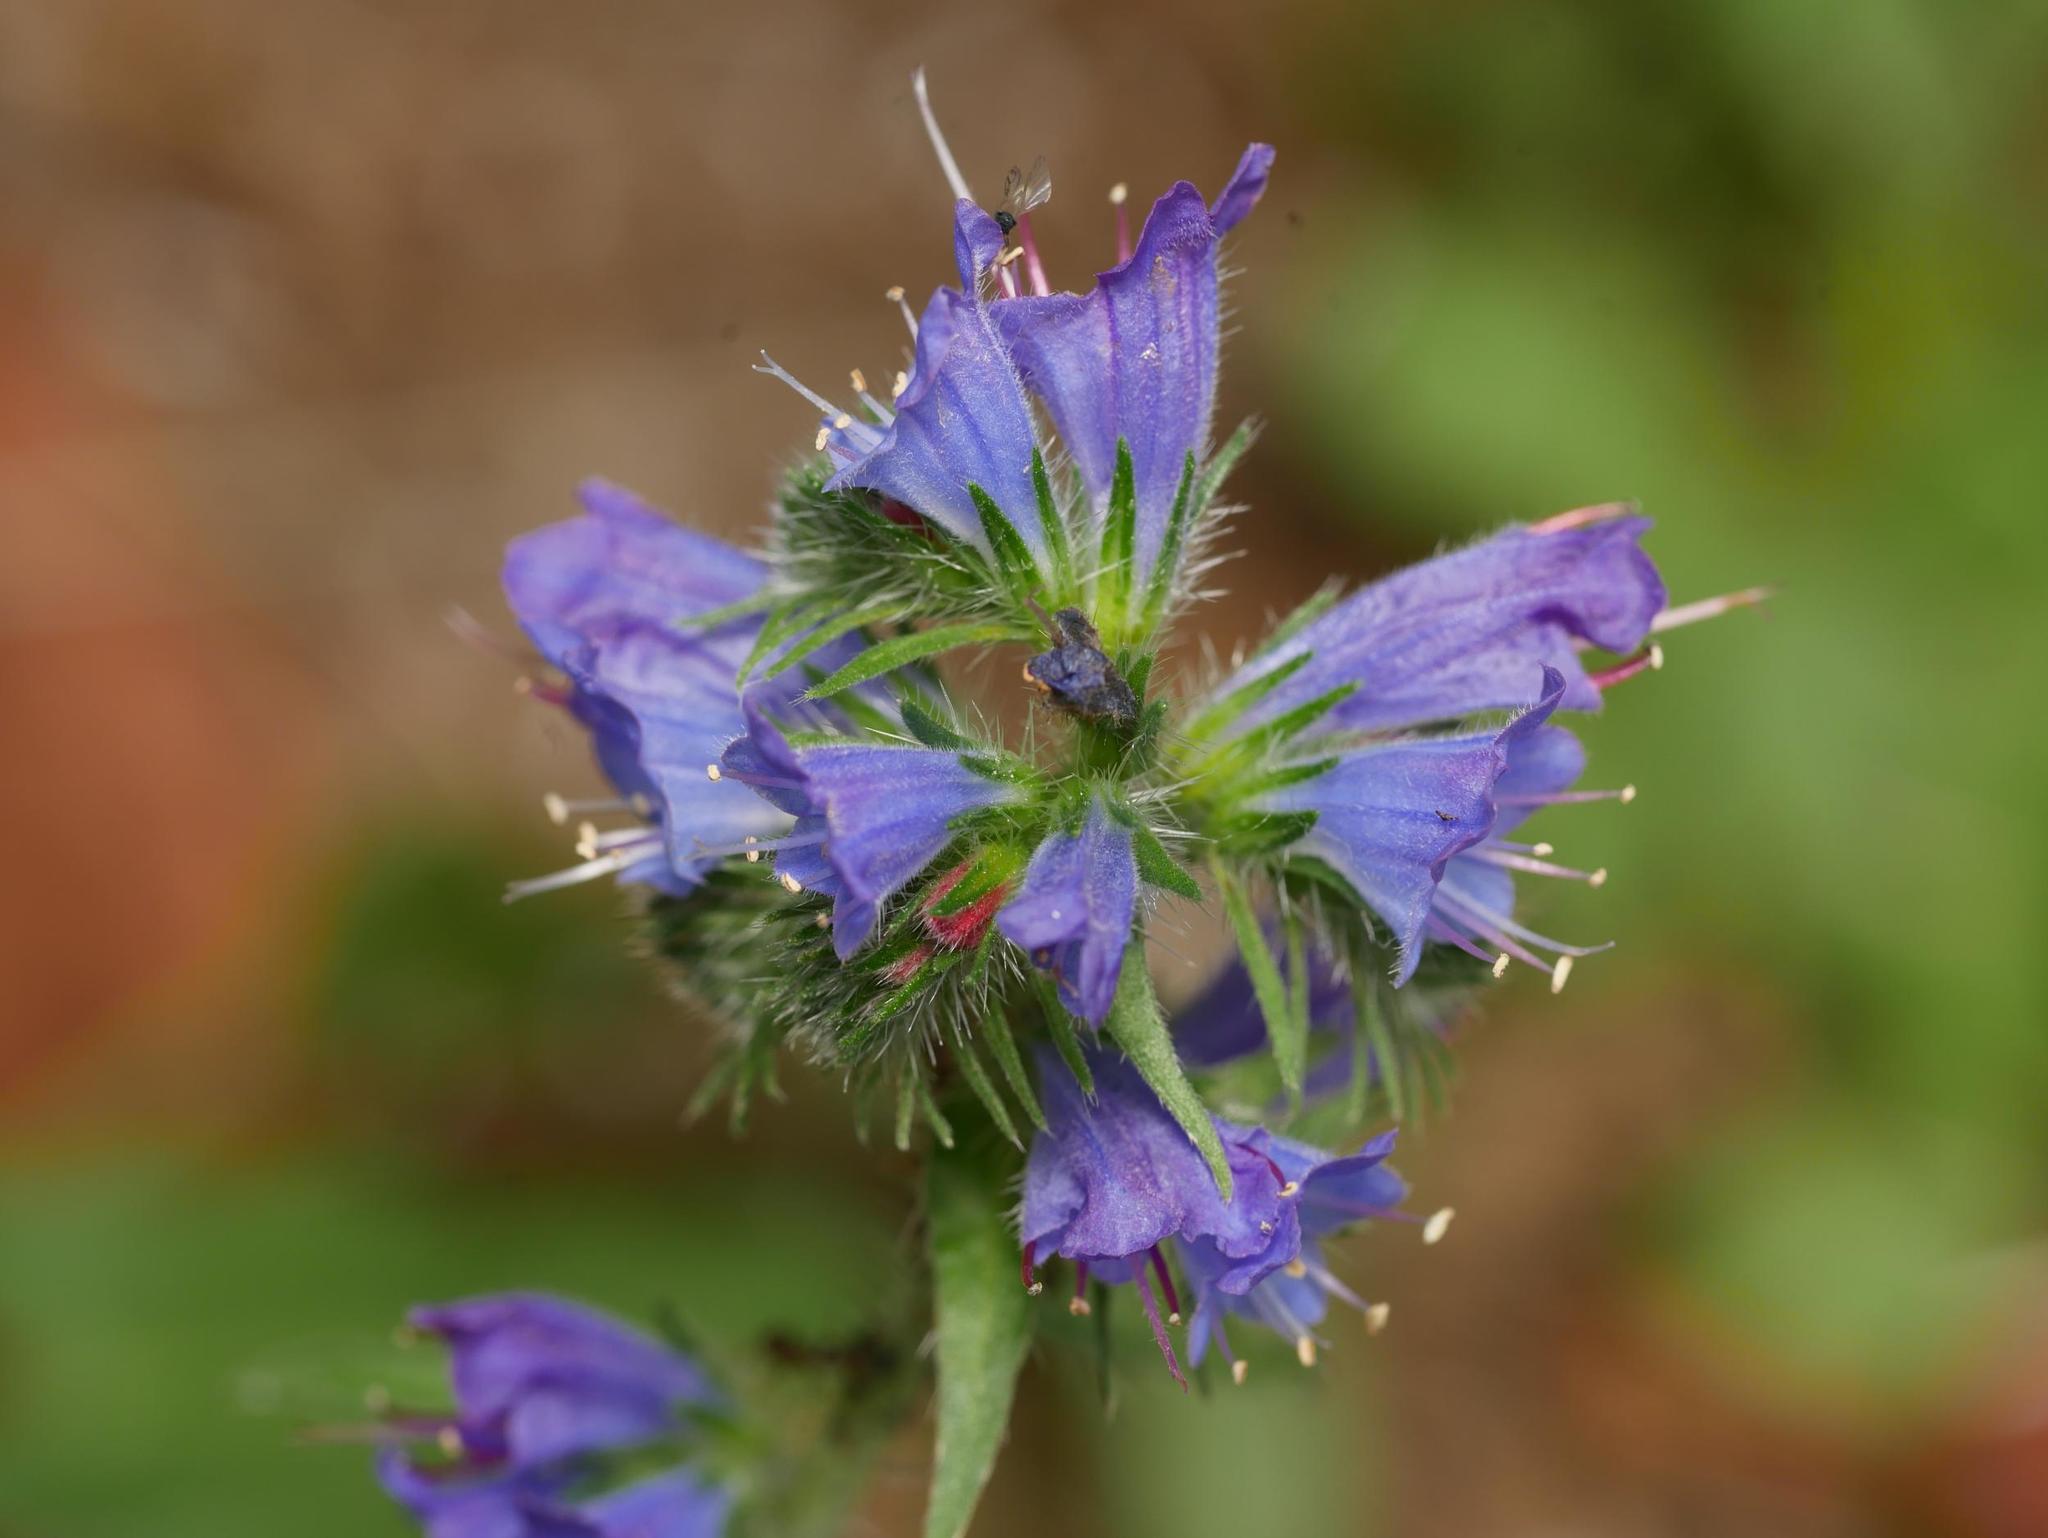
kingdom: Plantae
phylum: Tracheophyta
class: Magnoliopsida
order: Boraginales
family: Boraginaceae
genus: Echium
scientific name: Echium vulgare
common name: Common viper's bugloss
